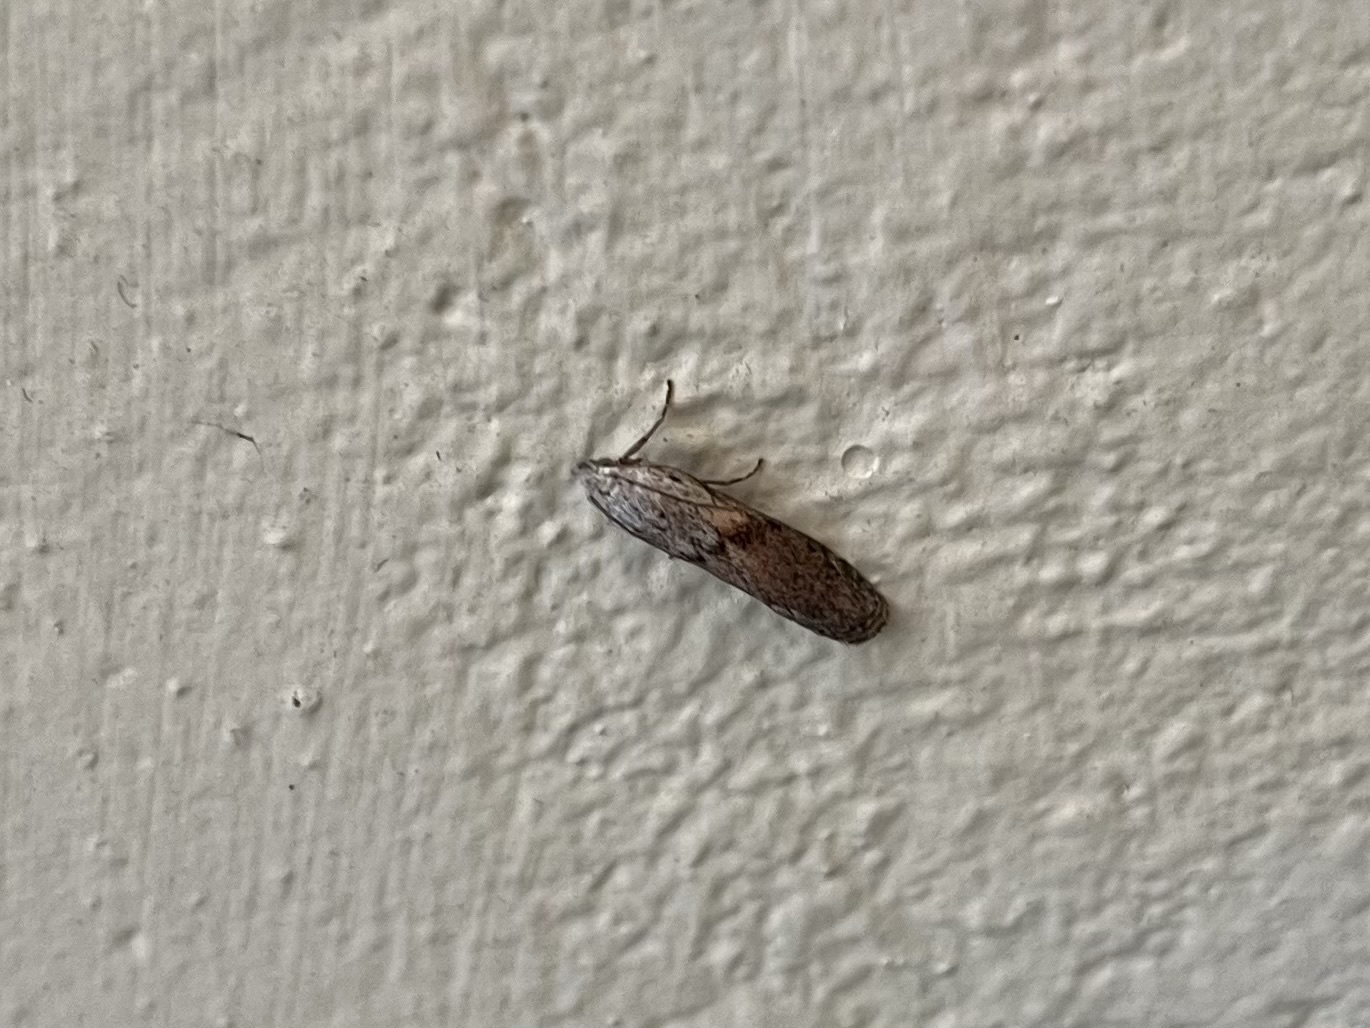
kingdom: Animalia
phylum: Arthropoda
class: Insecta
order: Lepidoptera
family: Pyralidae
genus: Aphomia
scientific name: Aphomia sociella
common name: Bee moth
